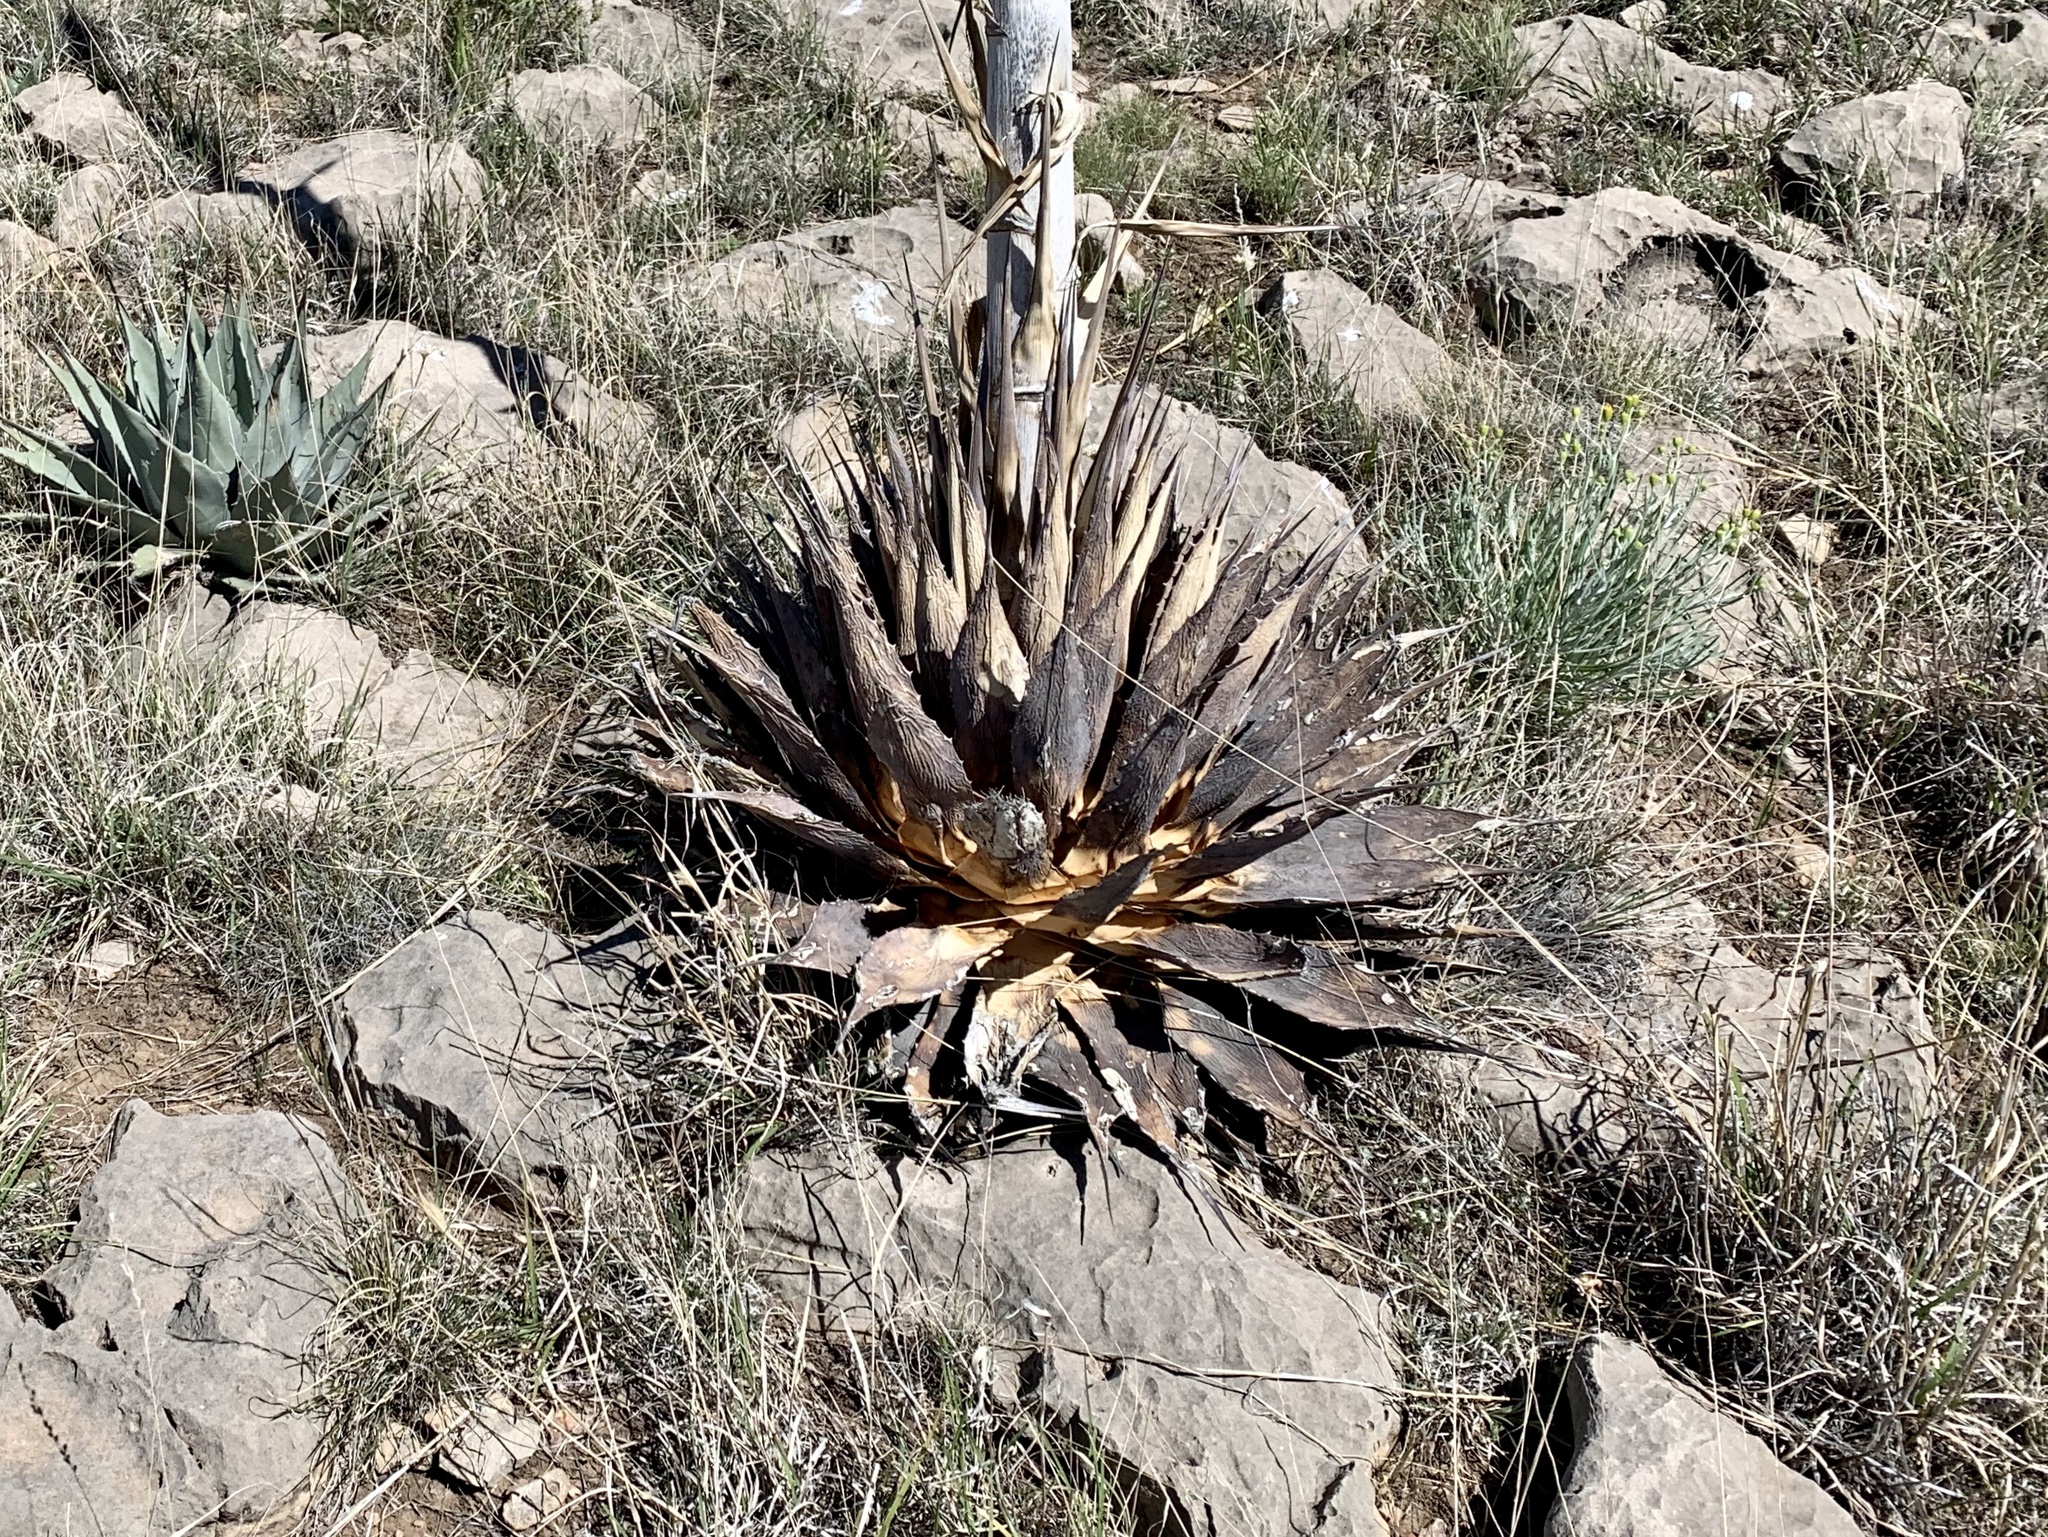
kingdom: Plantae
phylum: Tracheophyta
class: Liliopsida
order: Asparagales
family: Asparagaceae
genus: Agave
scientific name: Agave parryi
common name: Parry's agave
